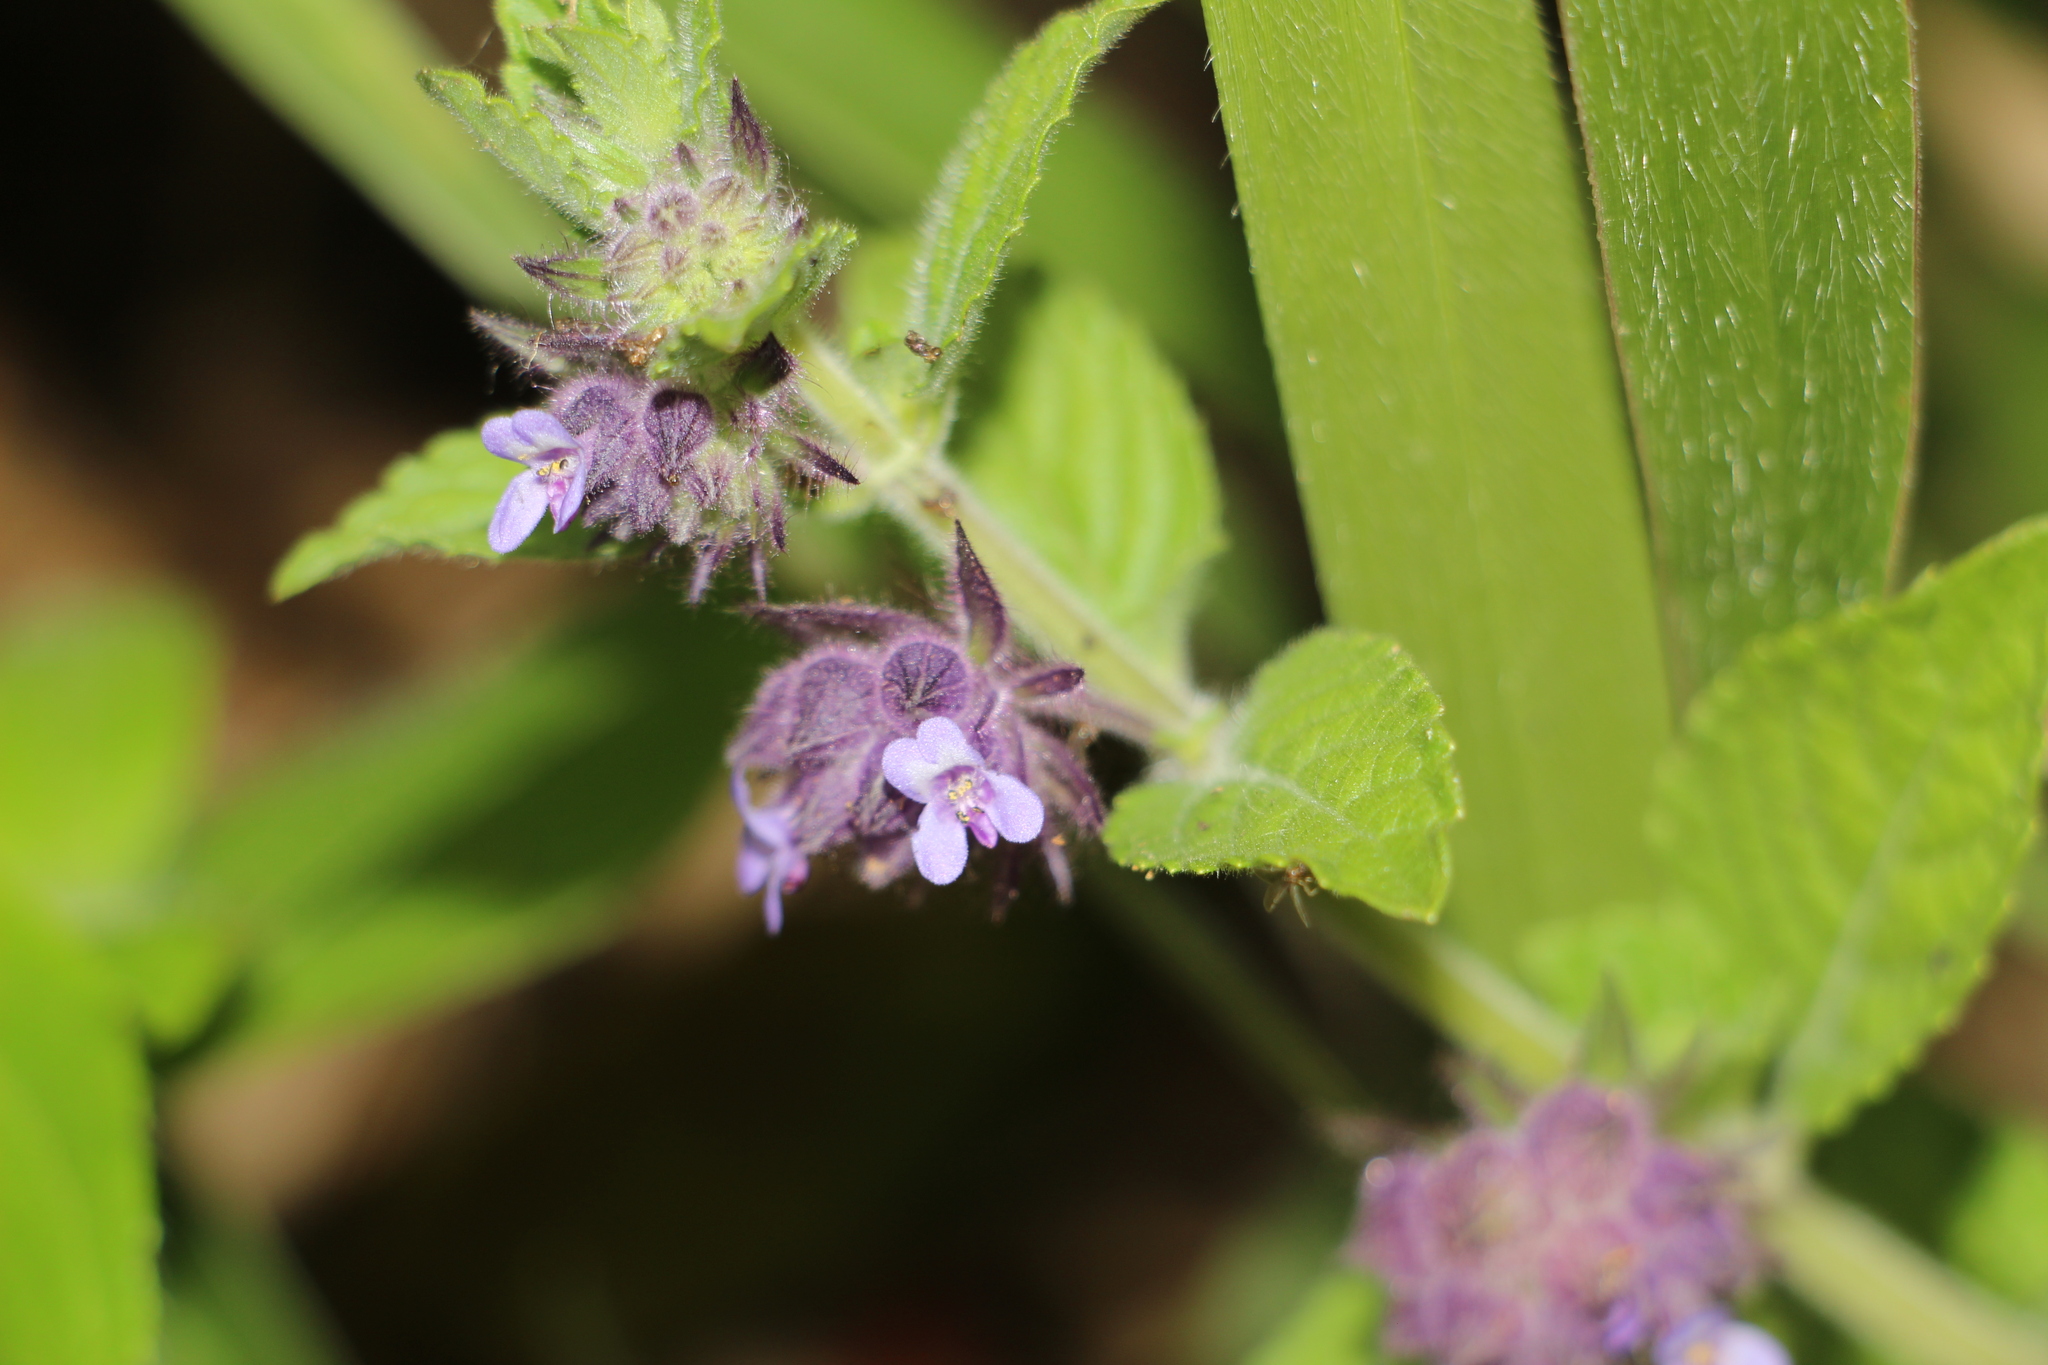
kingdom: Plantae
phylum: Tracheophyta
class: Magnoliopsida
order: Lamiales
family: Lamiaceae
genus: Marsypianthes
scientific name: Marsypianthes chamaedrys
